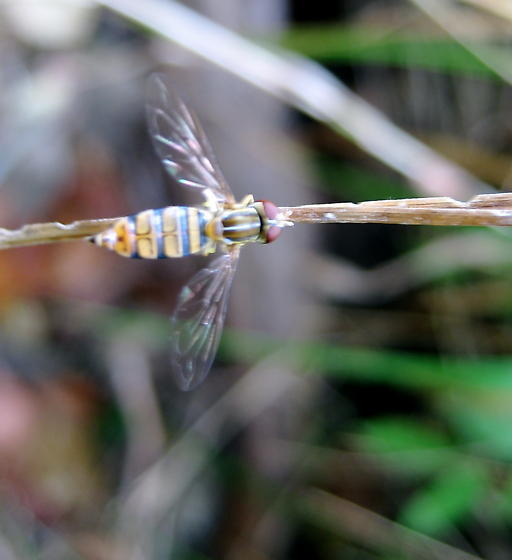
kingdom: Animalia
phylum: Arthropoda
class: Insecta
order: Diptera
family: Syrphidae
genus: Toxomerus
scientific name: Toxomerus politus
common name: Maize calligrapher
